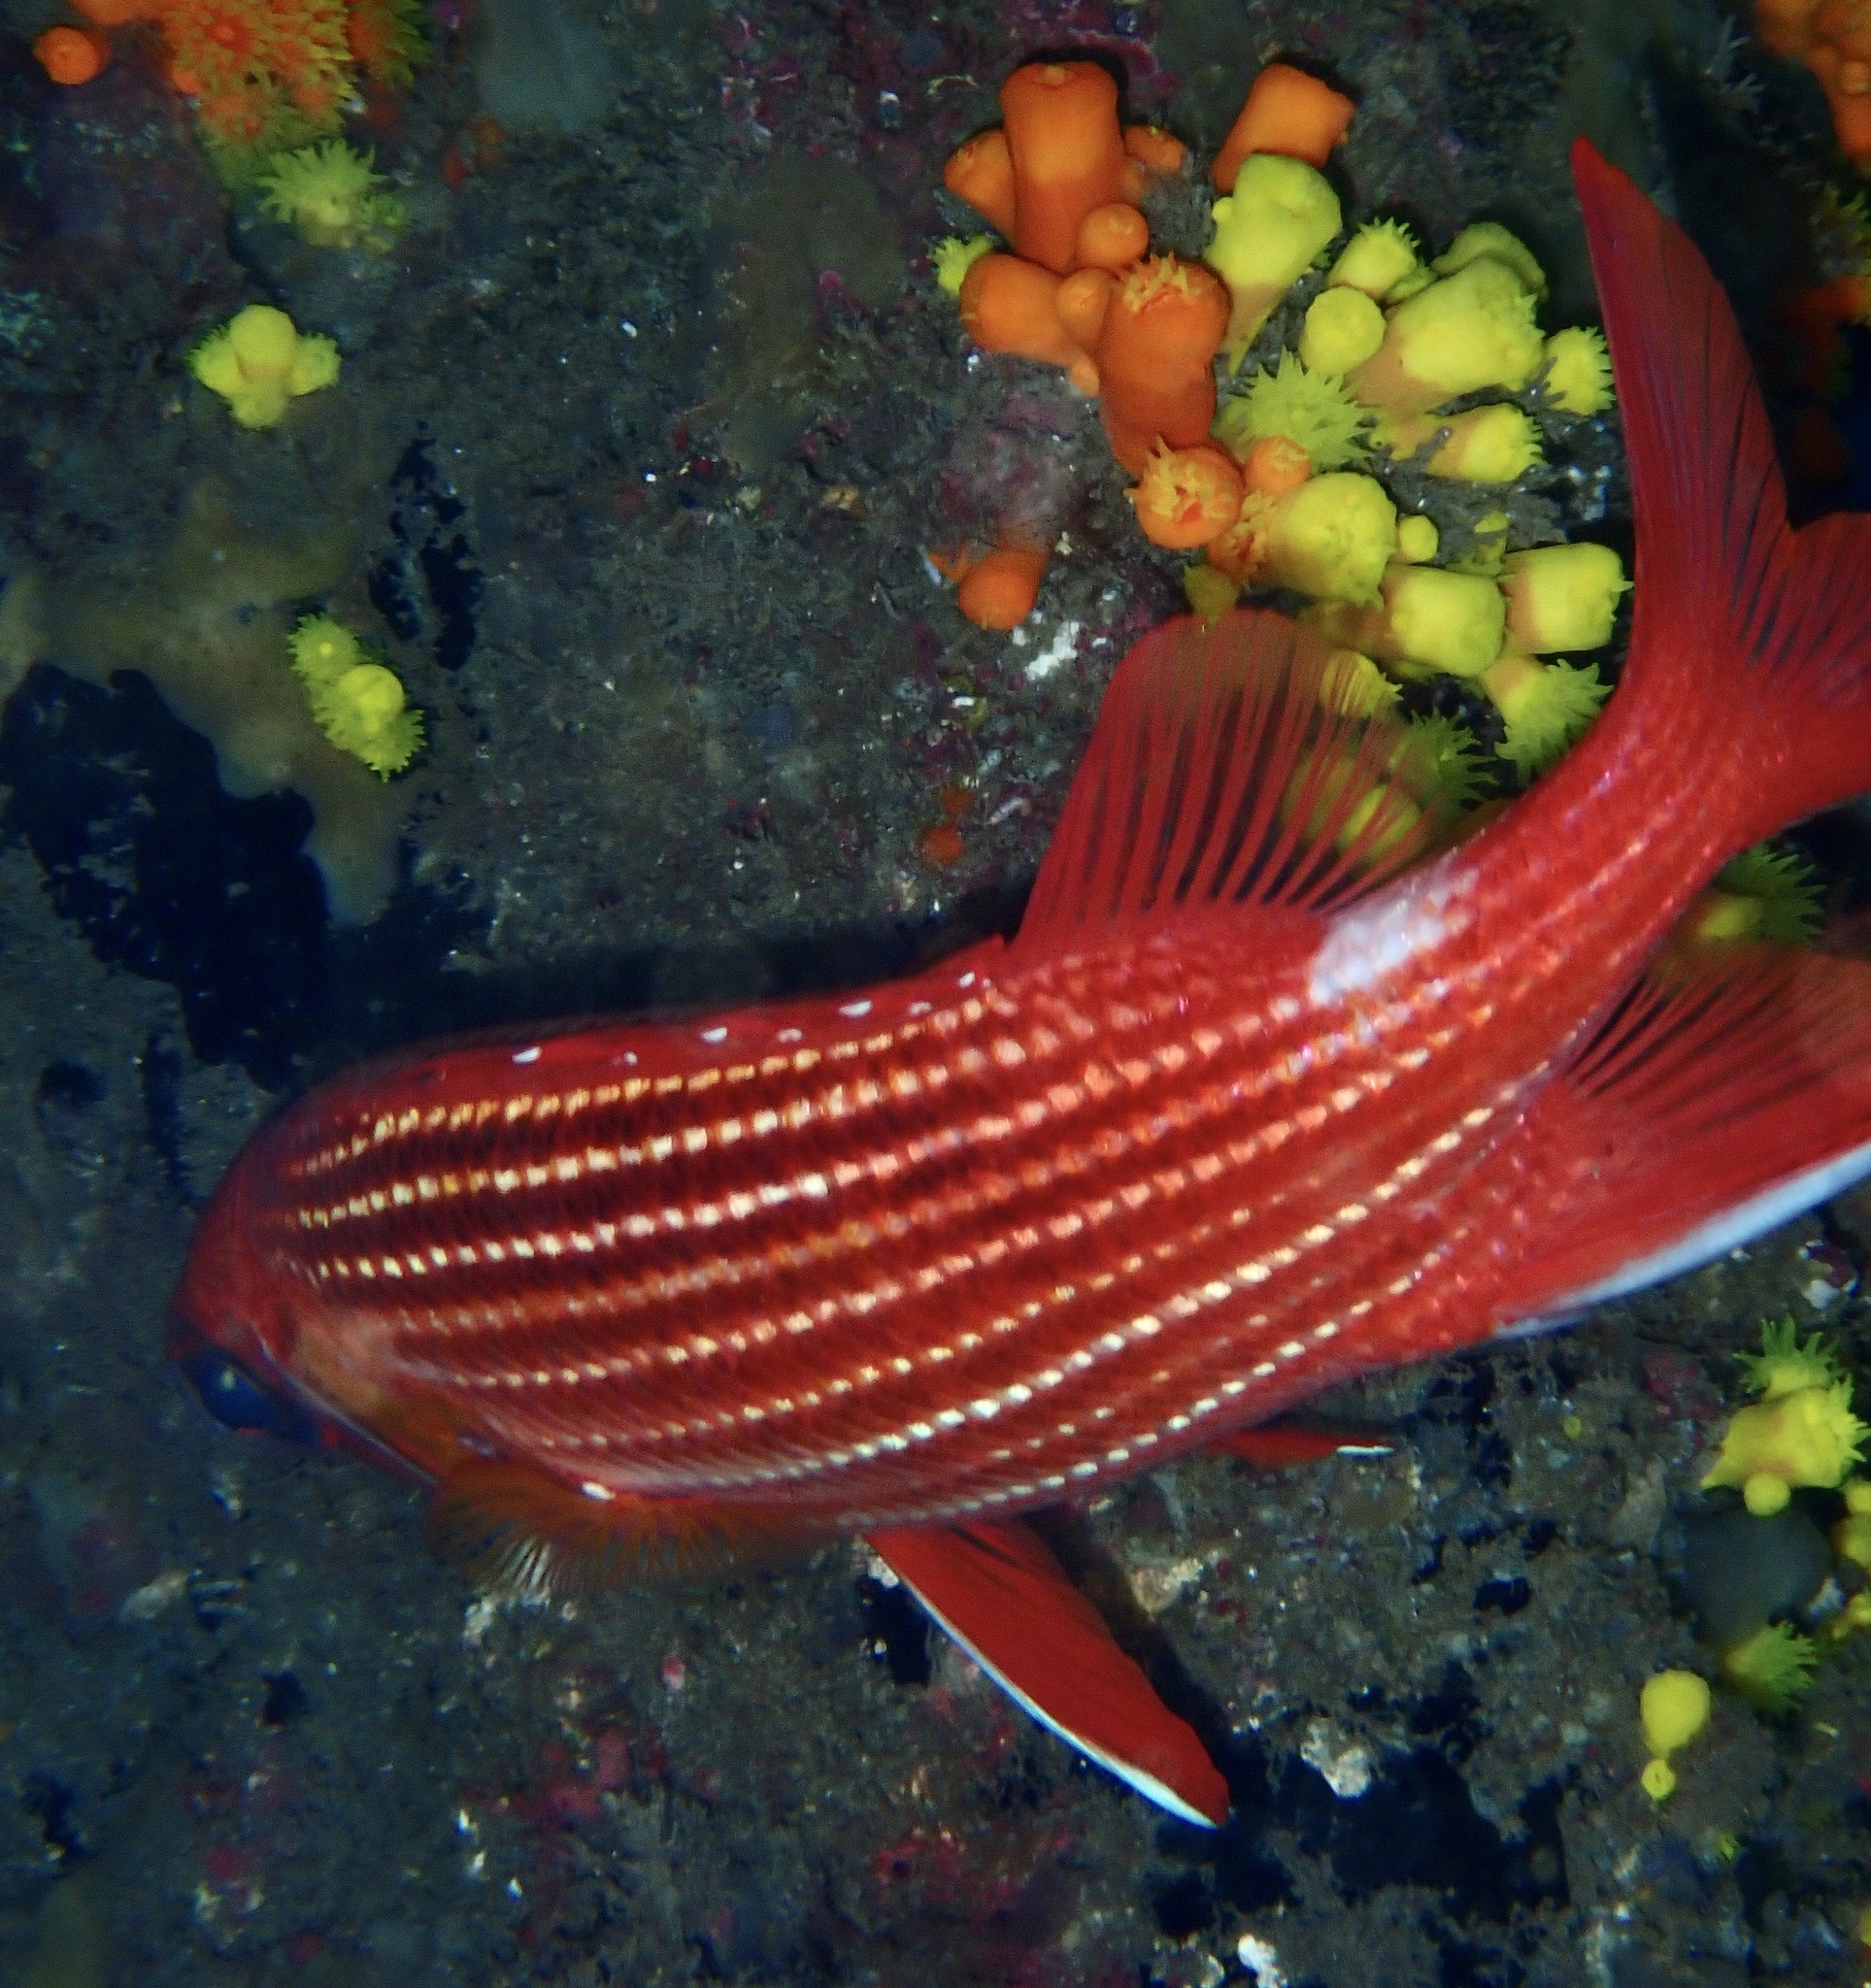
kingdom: Animalia
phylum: Chordata
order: Beryciformes
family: Holocentridae
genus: Sargocentron
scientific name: Sargocentron hastatum
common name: Red soldierfish
